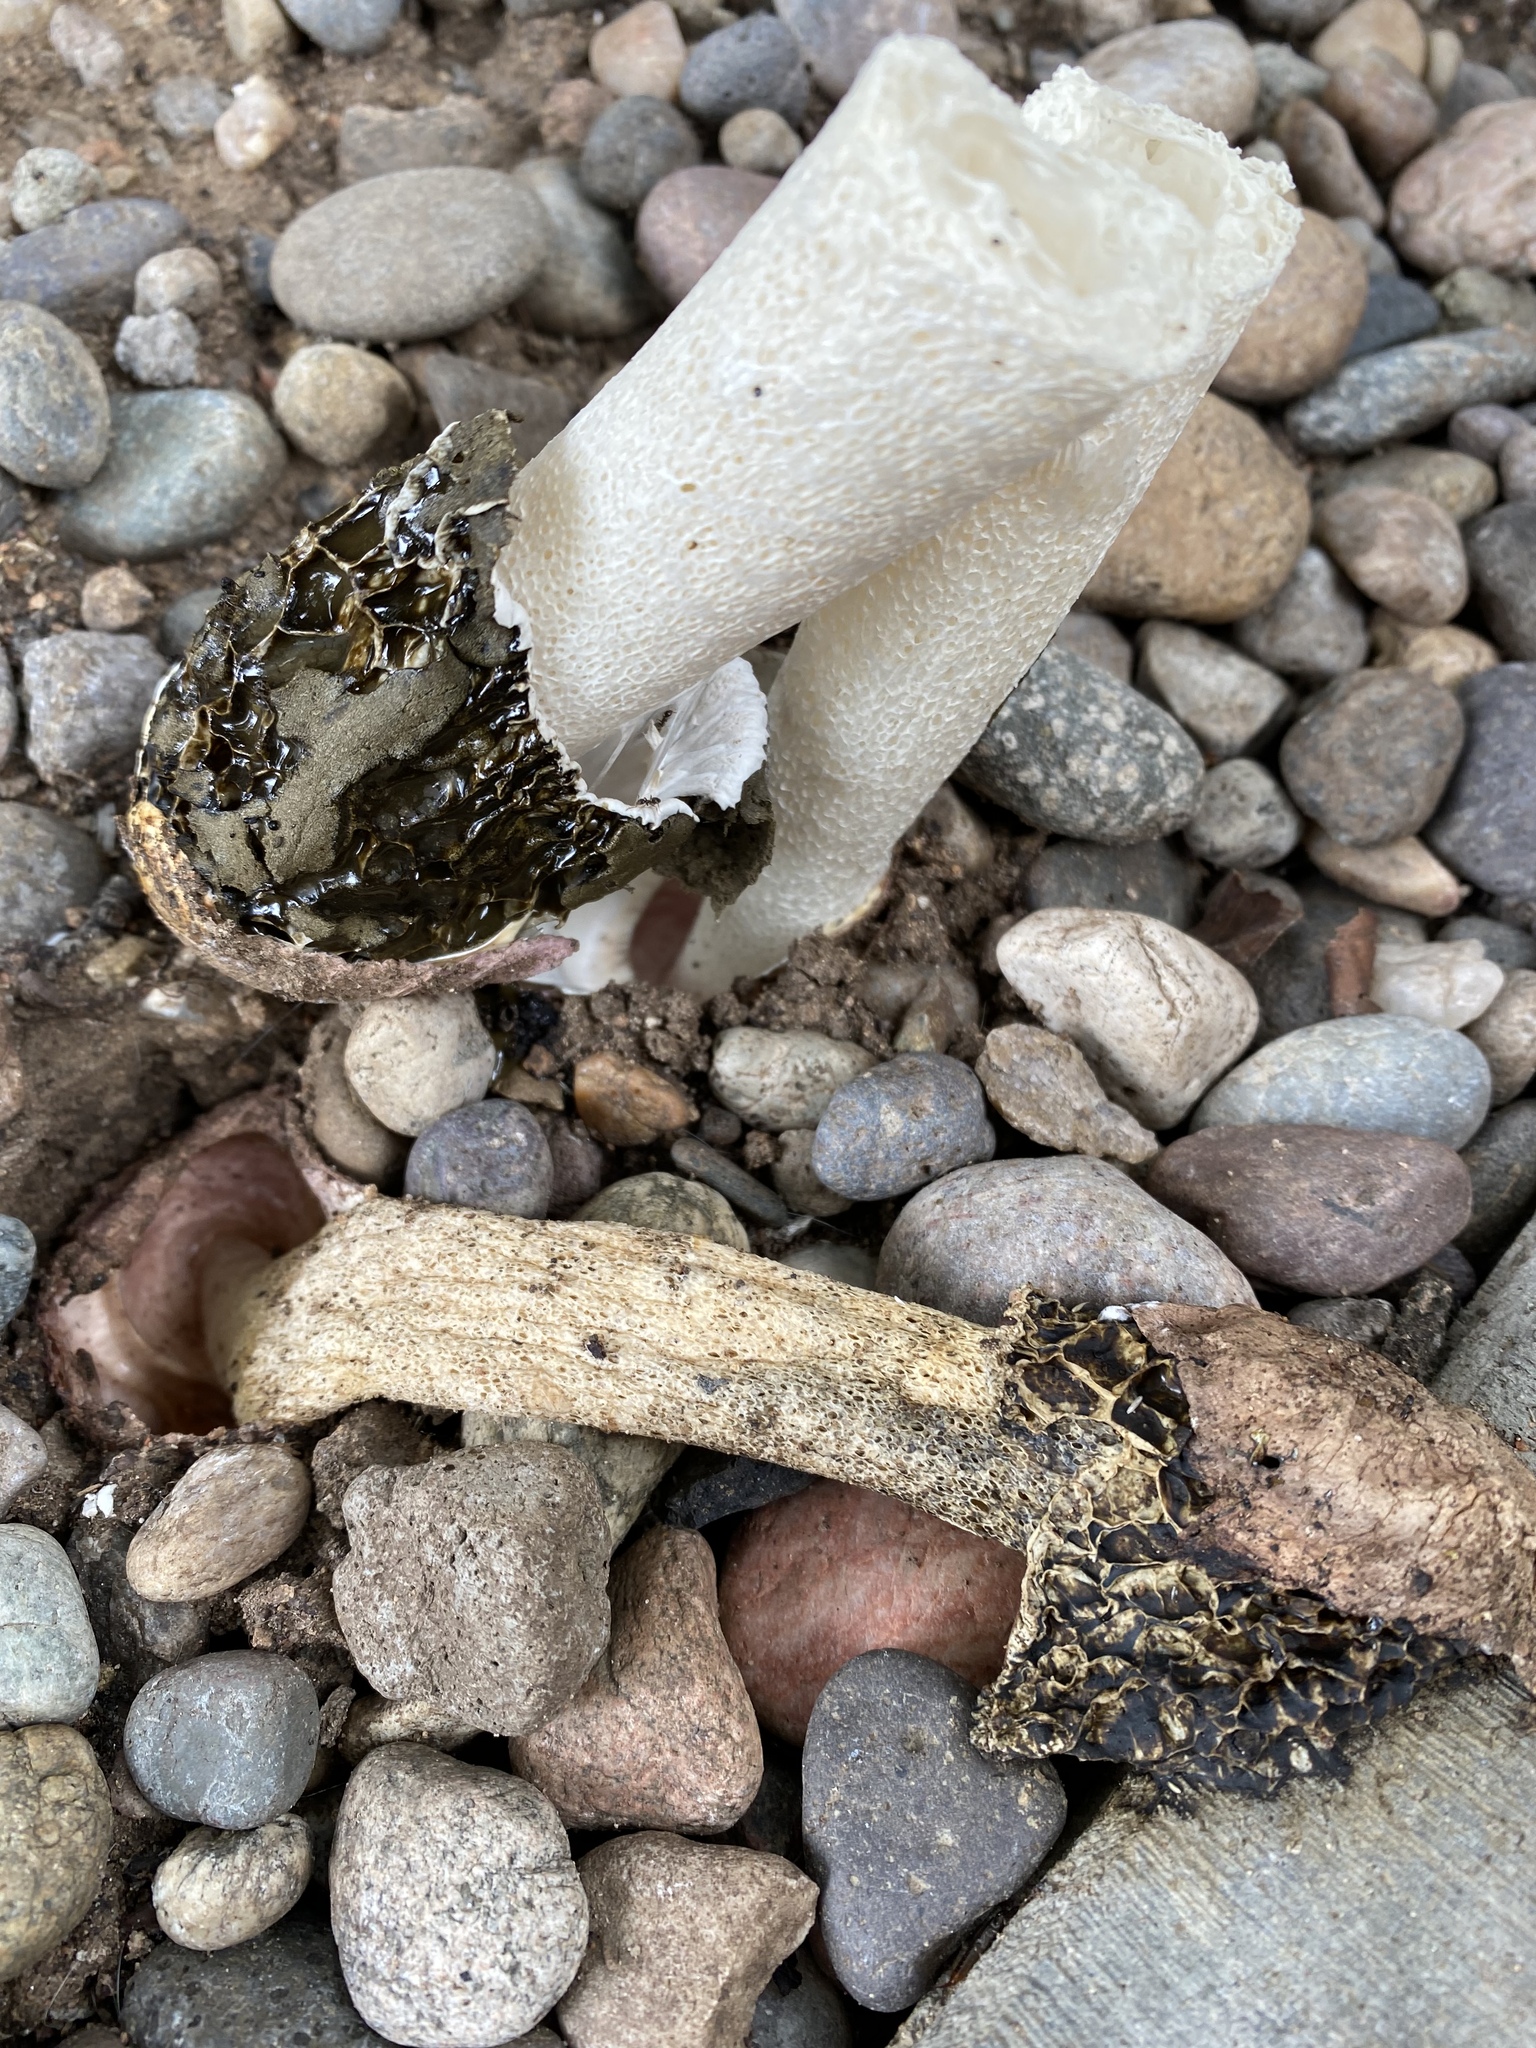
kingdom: Fungi
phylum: Basidiomycota
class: Agaricomycetes
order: Phallales
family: Phallaceae
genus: Phallus
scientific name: Phallus hadriani
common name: Sand stinkhorn
